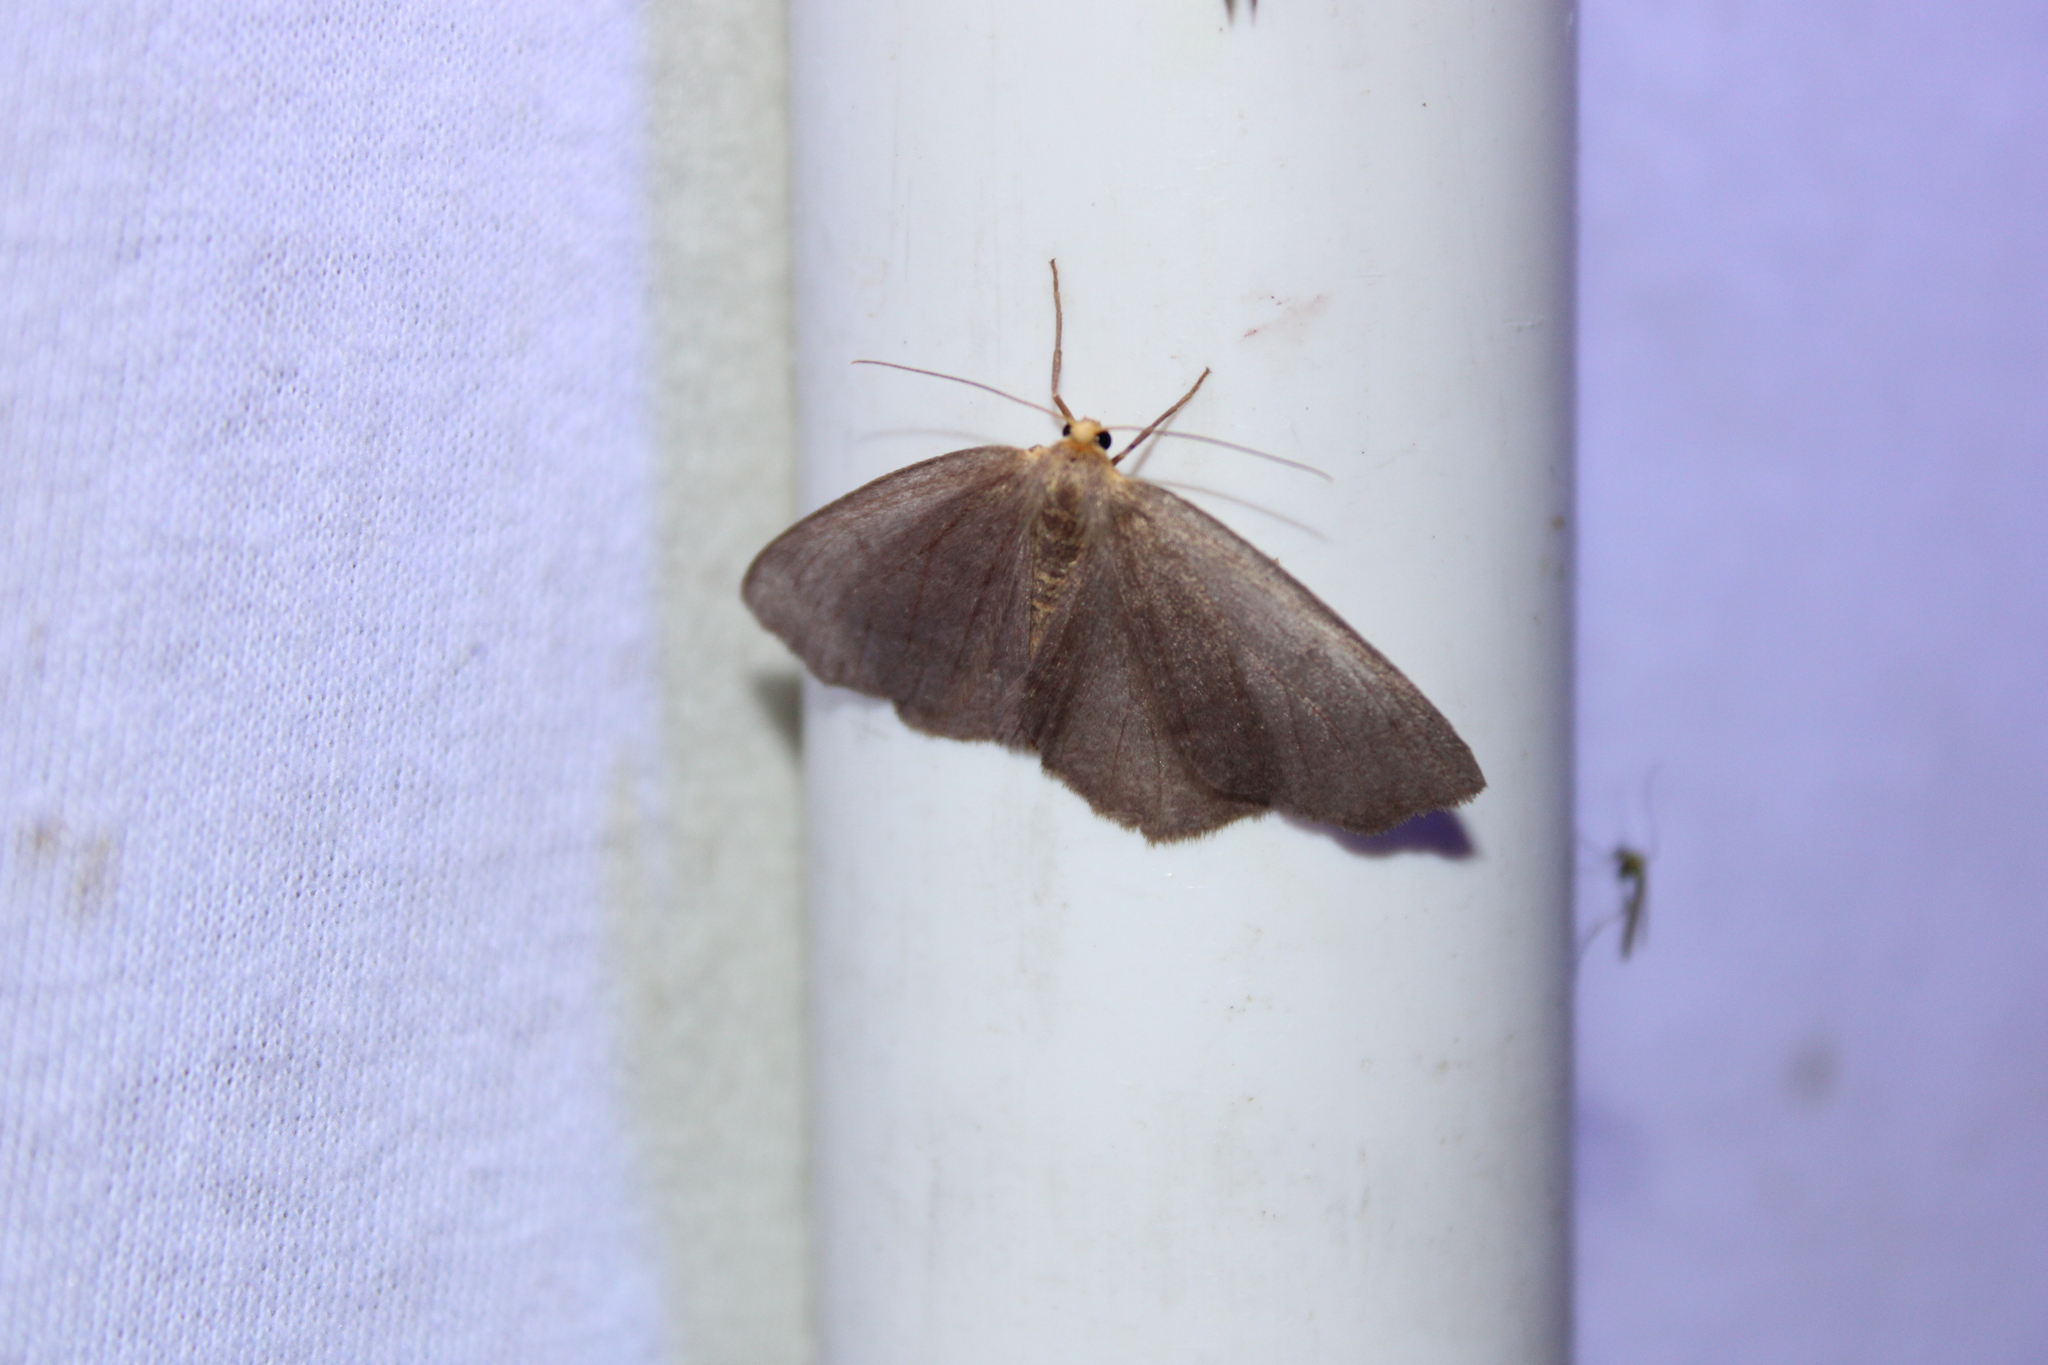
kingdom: Animalia
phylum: Arthropoda
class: Insecta
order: Lepidoptera
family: Geometridae
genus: Lambdina
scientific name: Lambdina pellucidaria
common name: Eastern pinelooper
